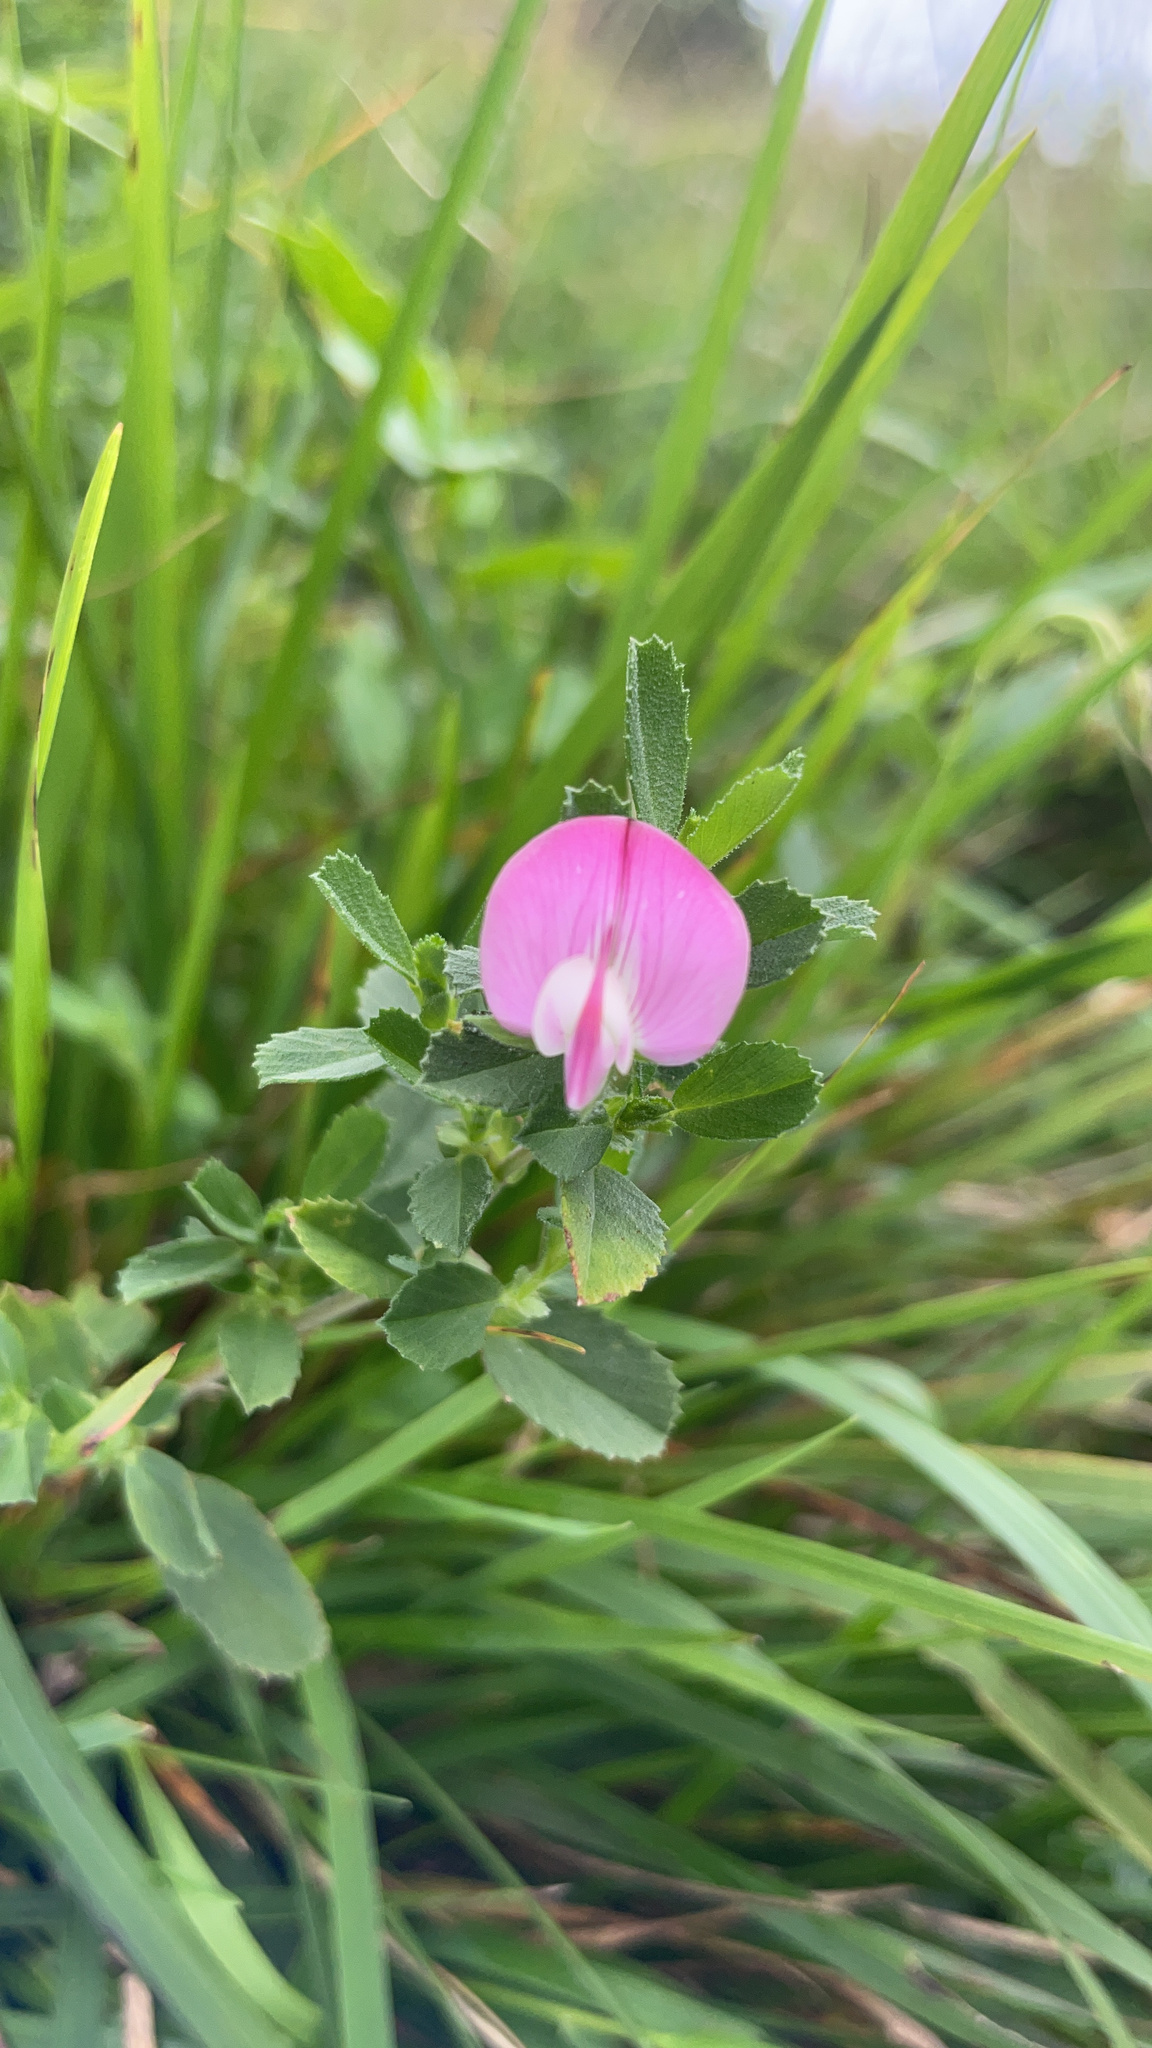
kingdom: Plantae
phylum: Tracheophyta
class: Magnoliopsida
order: Fabales
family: Fabaceae
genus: Ononis
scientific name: Ononis spinosa
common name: Spiny restharrow
